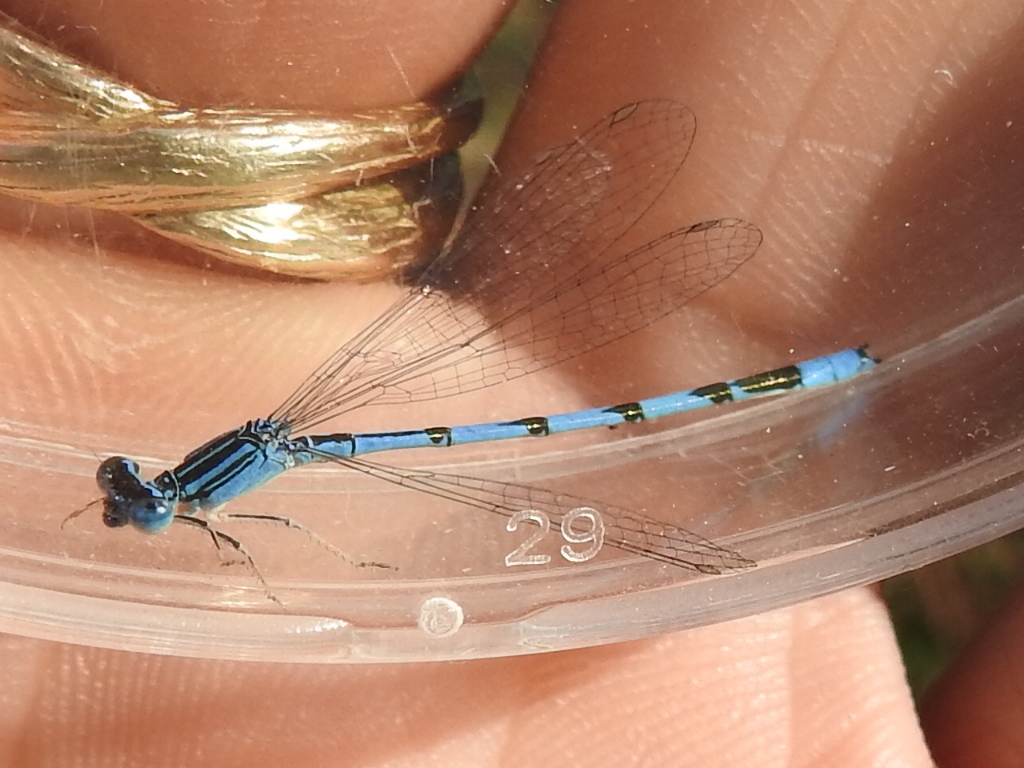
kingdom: Animalia
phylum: Arthropoda
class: Insecta
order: Odonata
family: Coenagrionidae
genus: Enallagma
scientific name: Enallagma basidens
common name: Double-striped bluet
